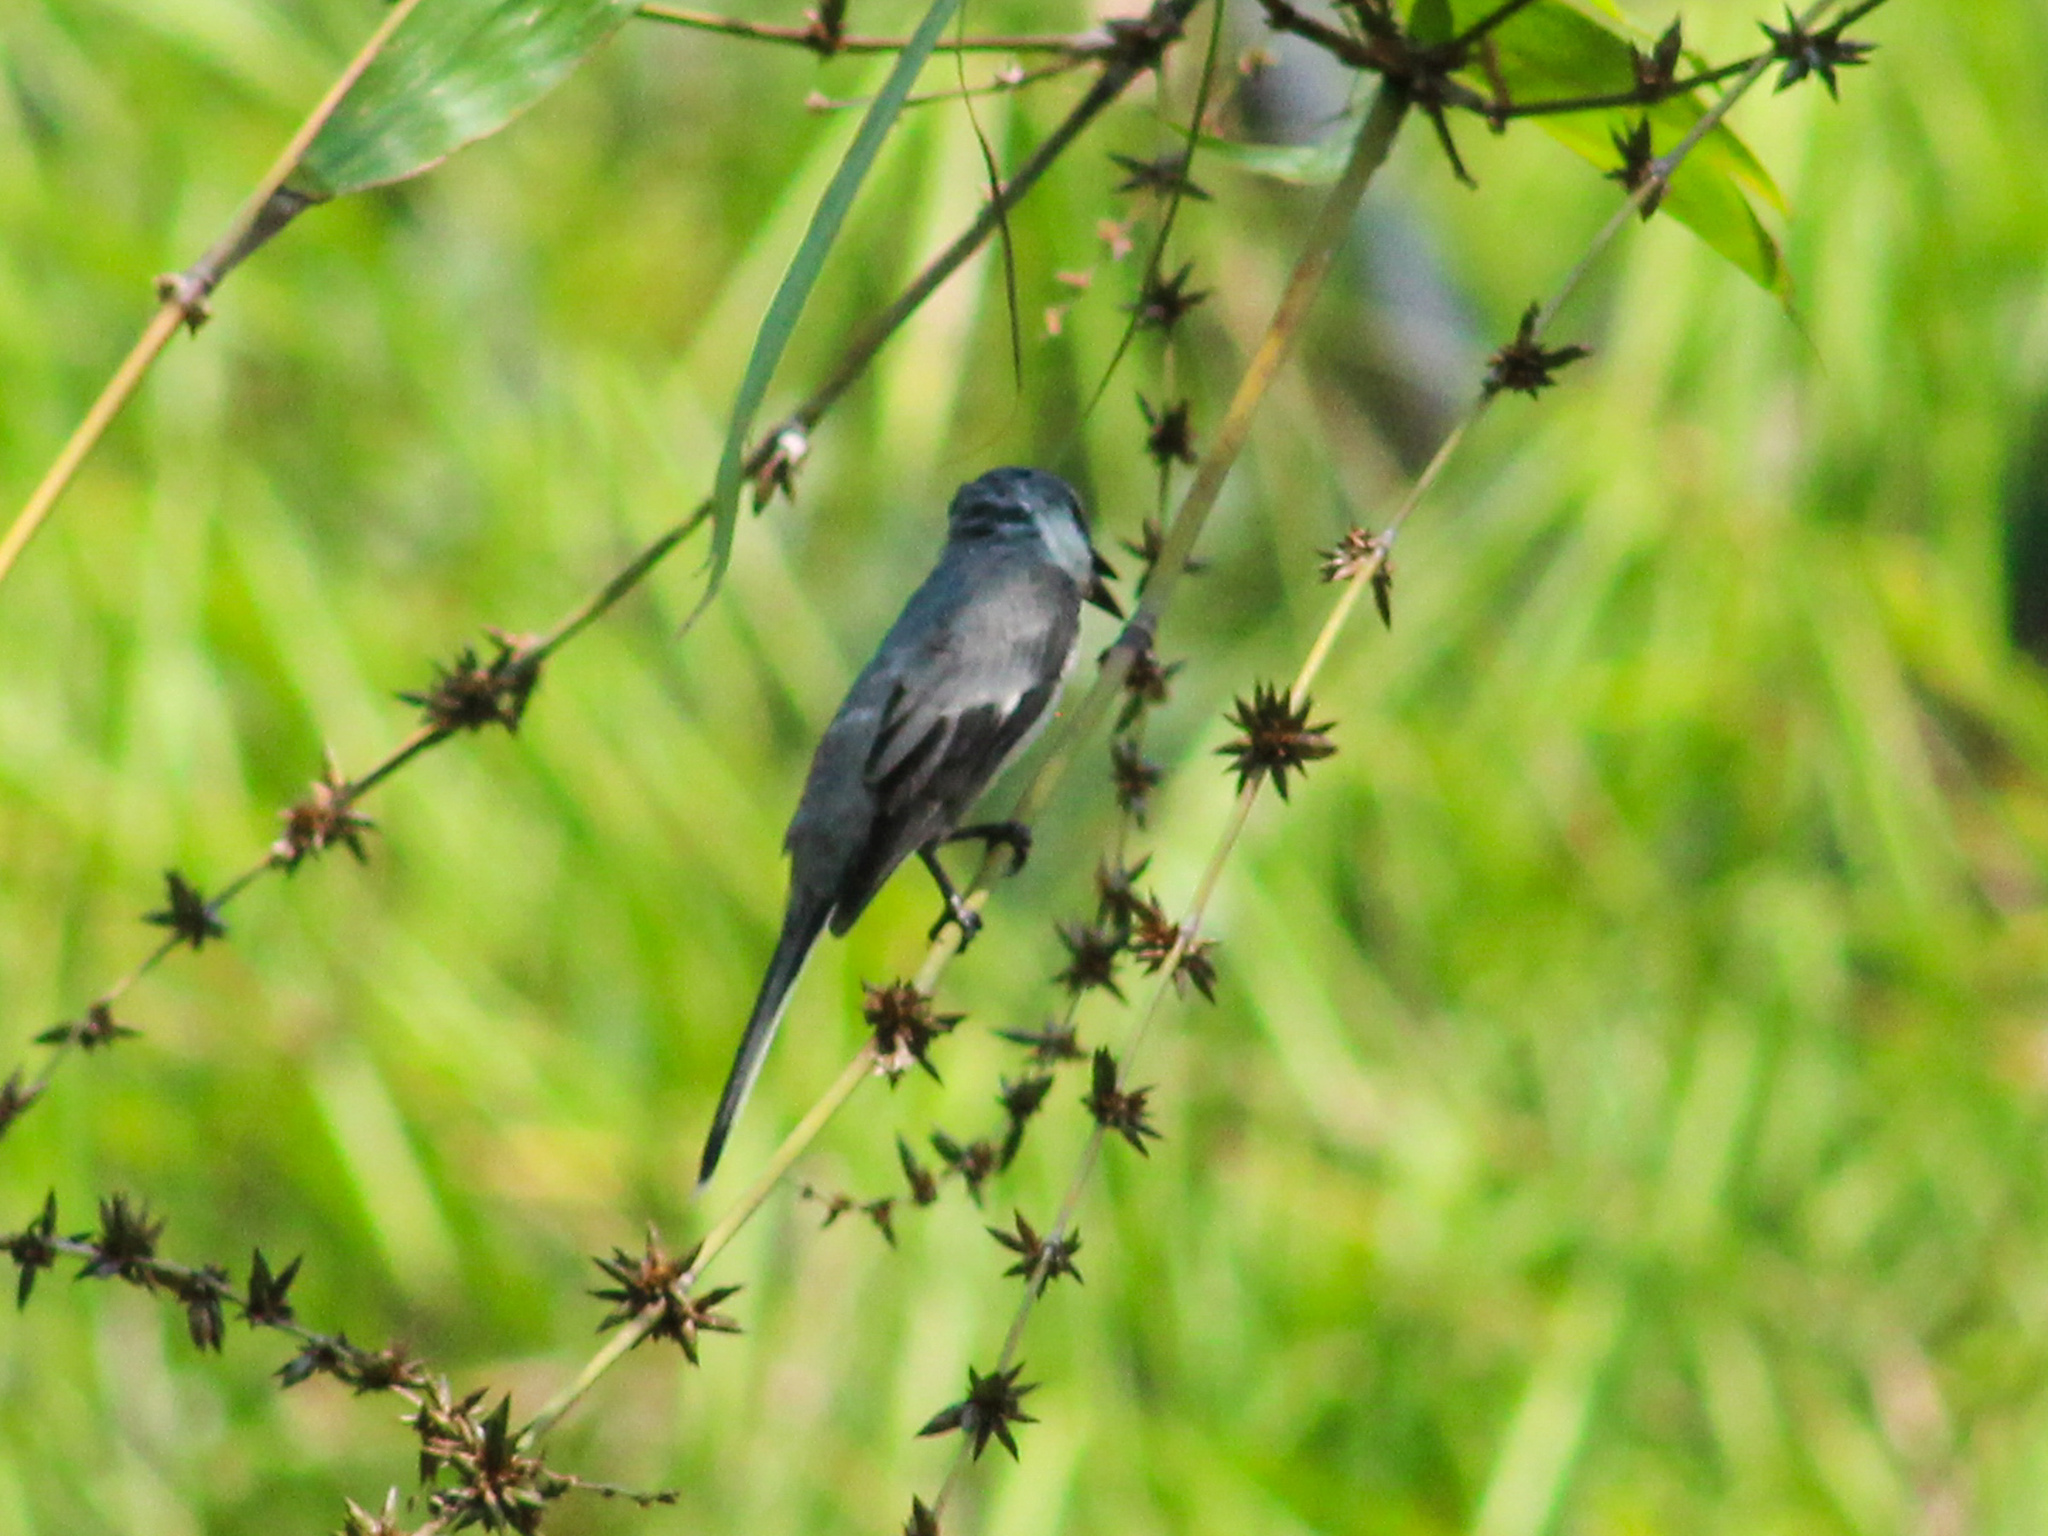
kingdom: Animalia
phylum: Chordata
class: Aves
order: Passeriformes
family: Campephagidae
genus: Pericrocotus
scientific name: Pericrocotus cantonensis
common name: Swinhoe's minivet
